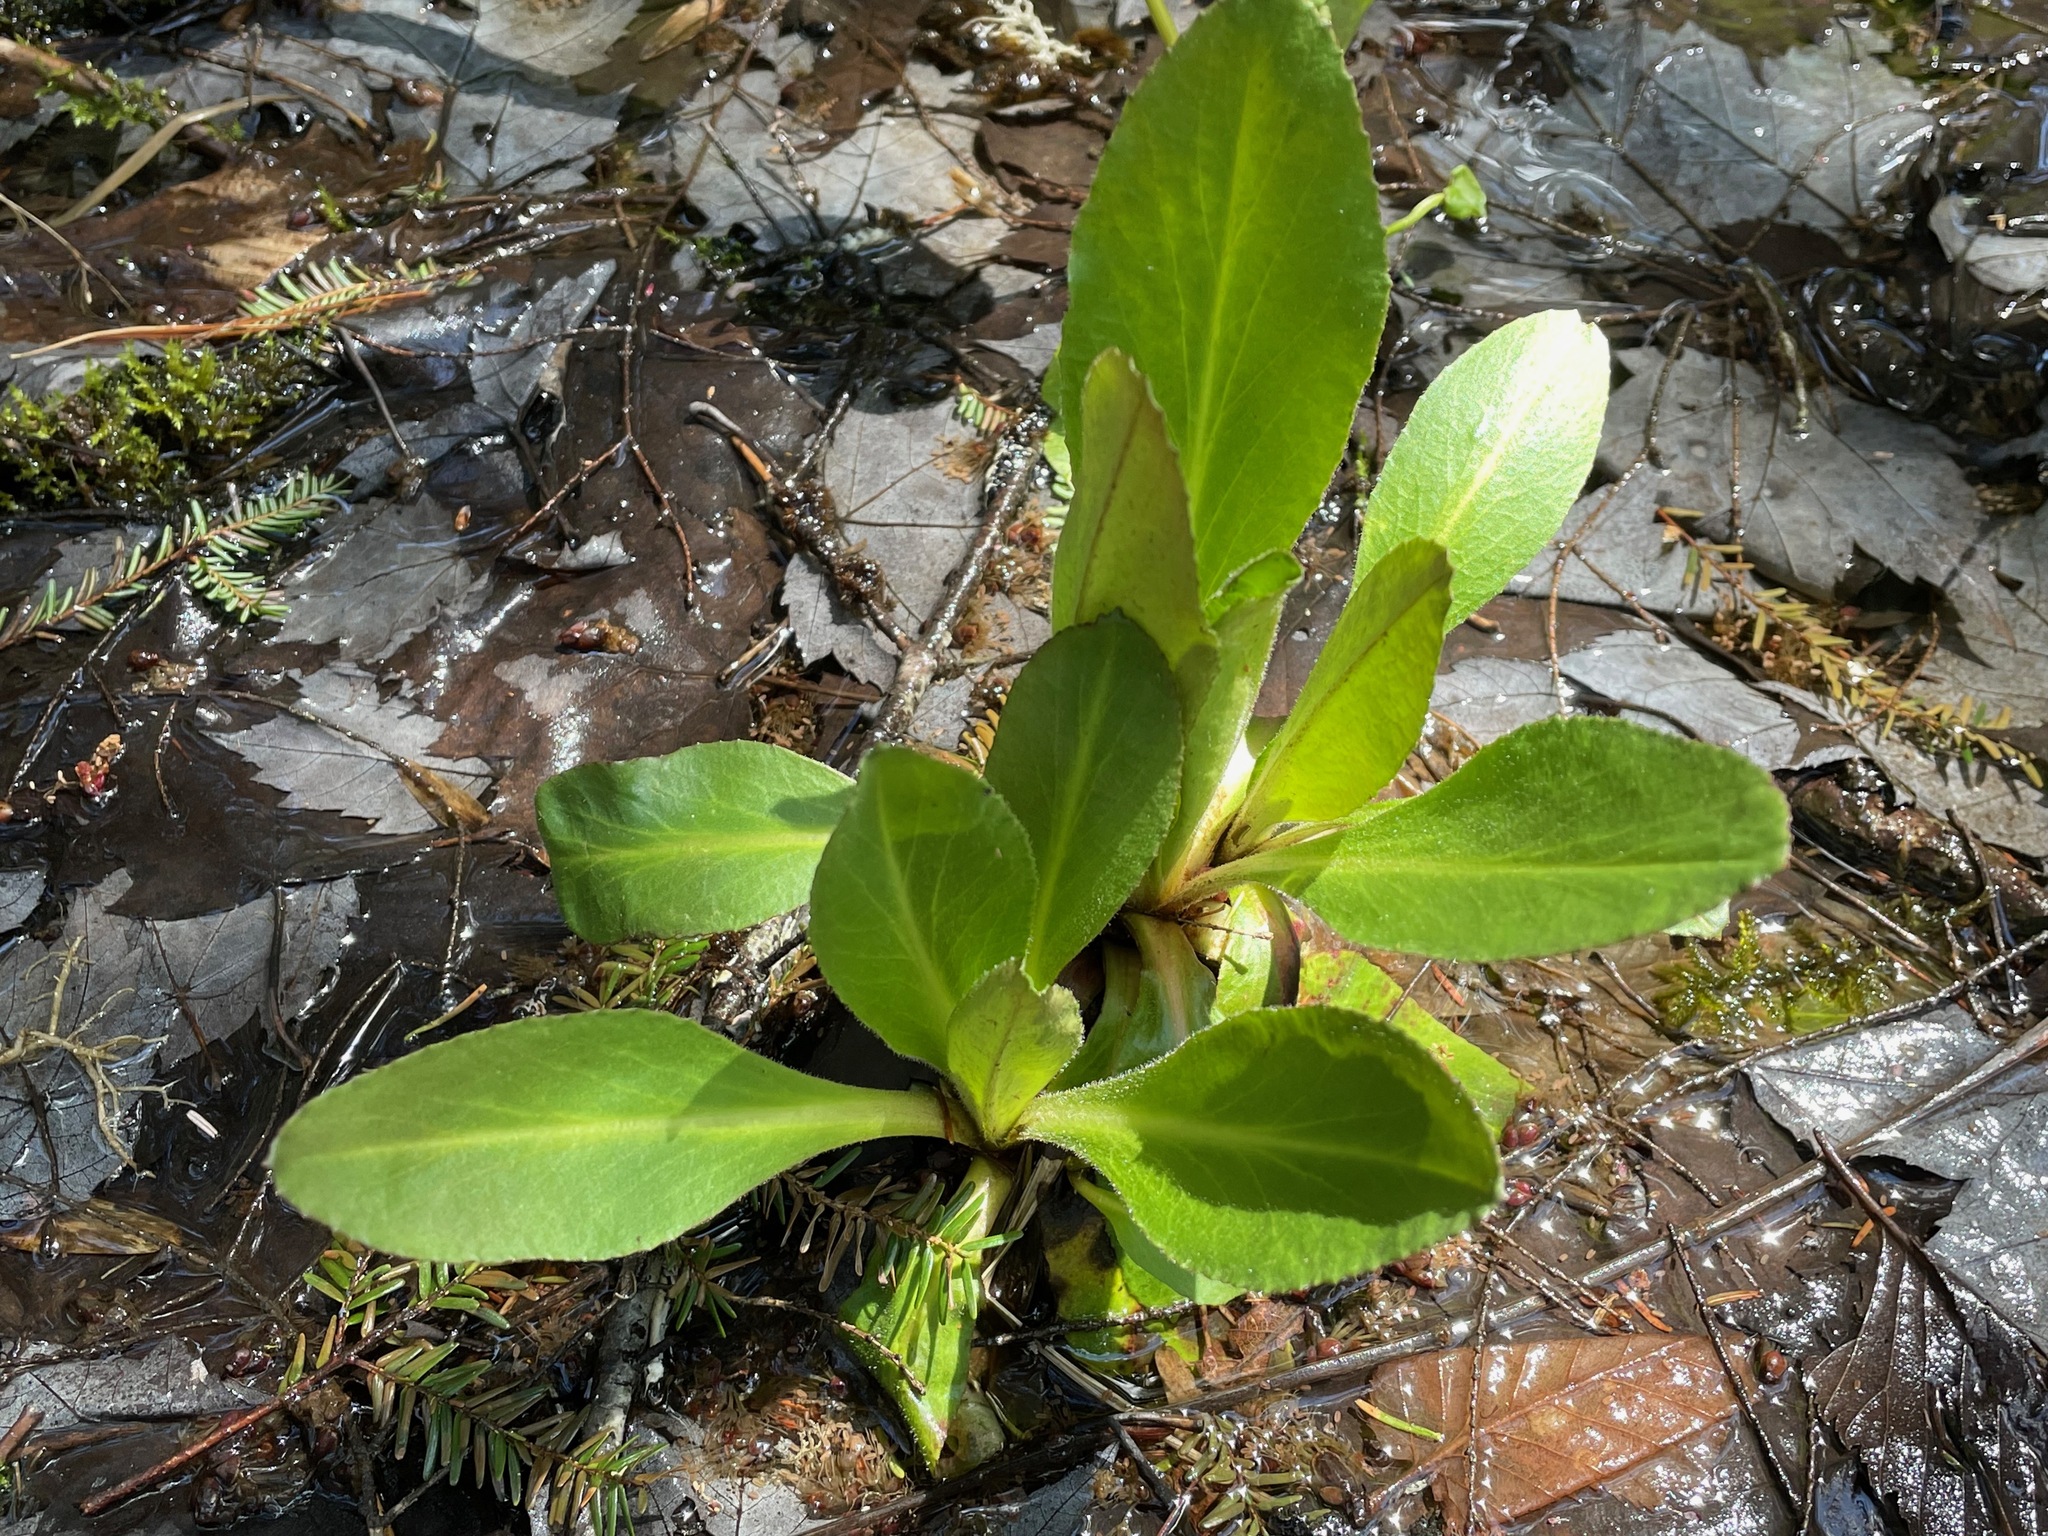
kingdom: Plantae
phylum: Tracheophyta
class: Magnoliopsida
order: Saxifragales
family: Saxifragaceae
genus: Micranthes
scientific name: Micranthes pensylvanica
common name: Marsh saxifrage
